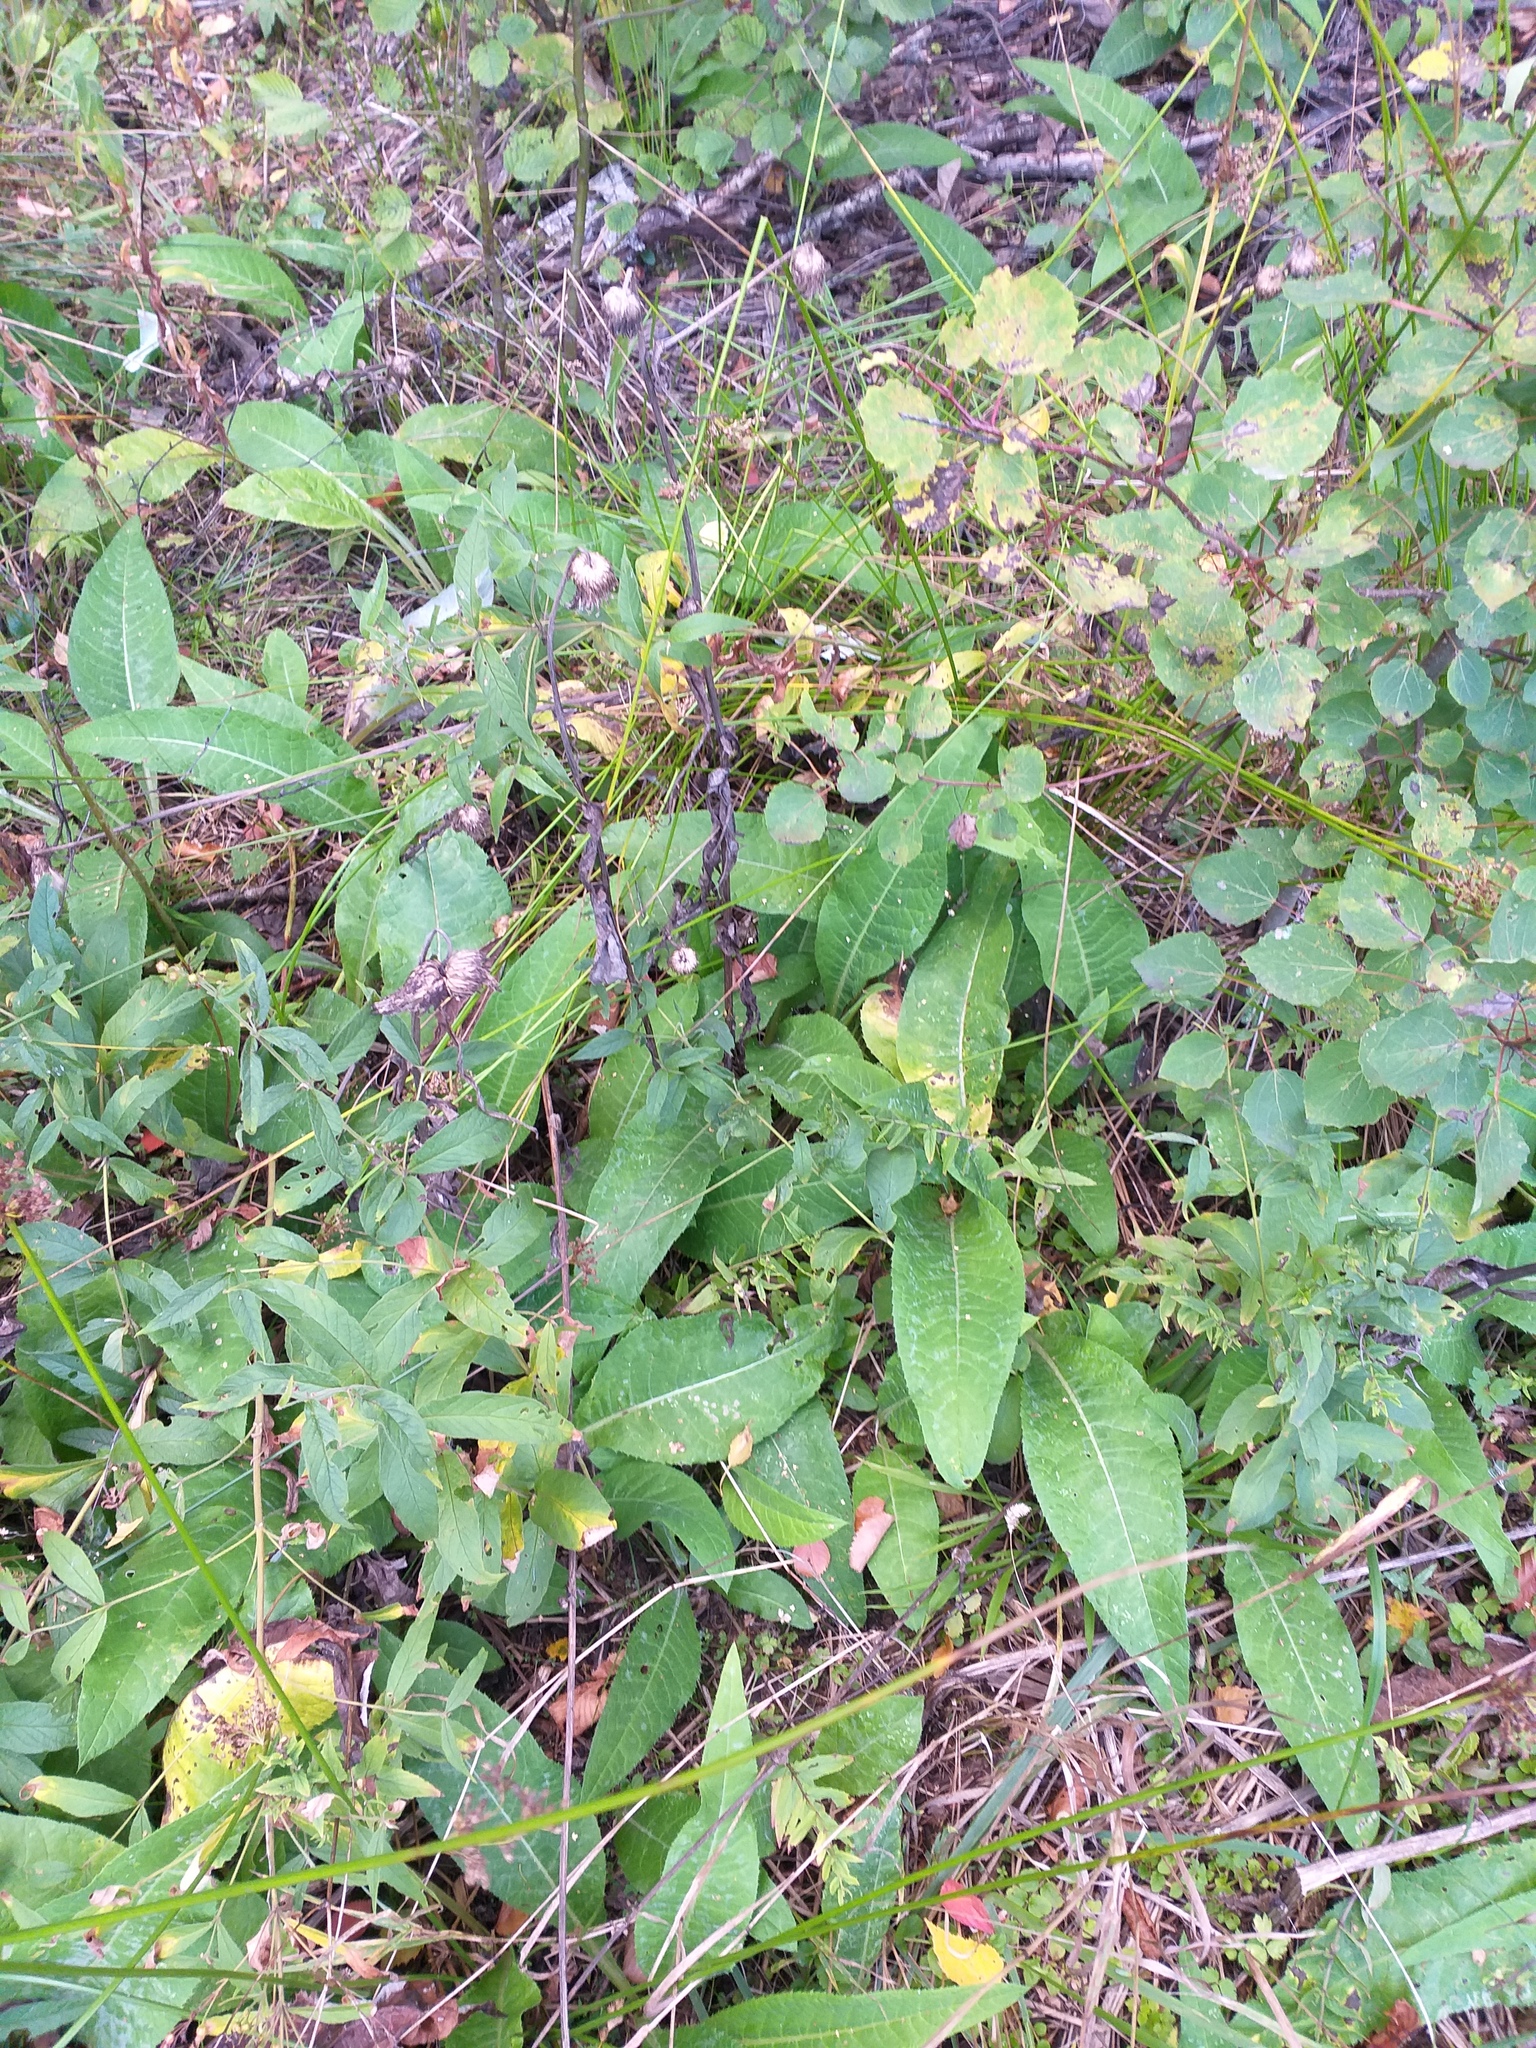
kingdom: Plantae
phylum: Tracheophyta
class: Magnoliopsida
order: Asterales
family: Asteraceae
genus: Cirsium
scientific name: Cirsium heterophyllum
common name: Melancholy thistle
